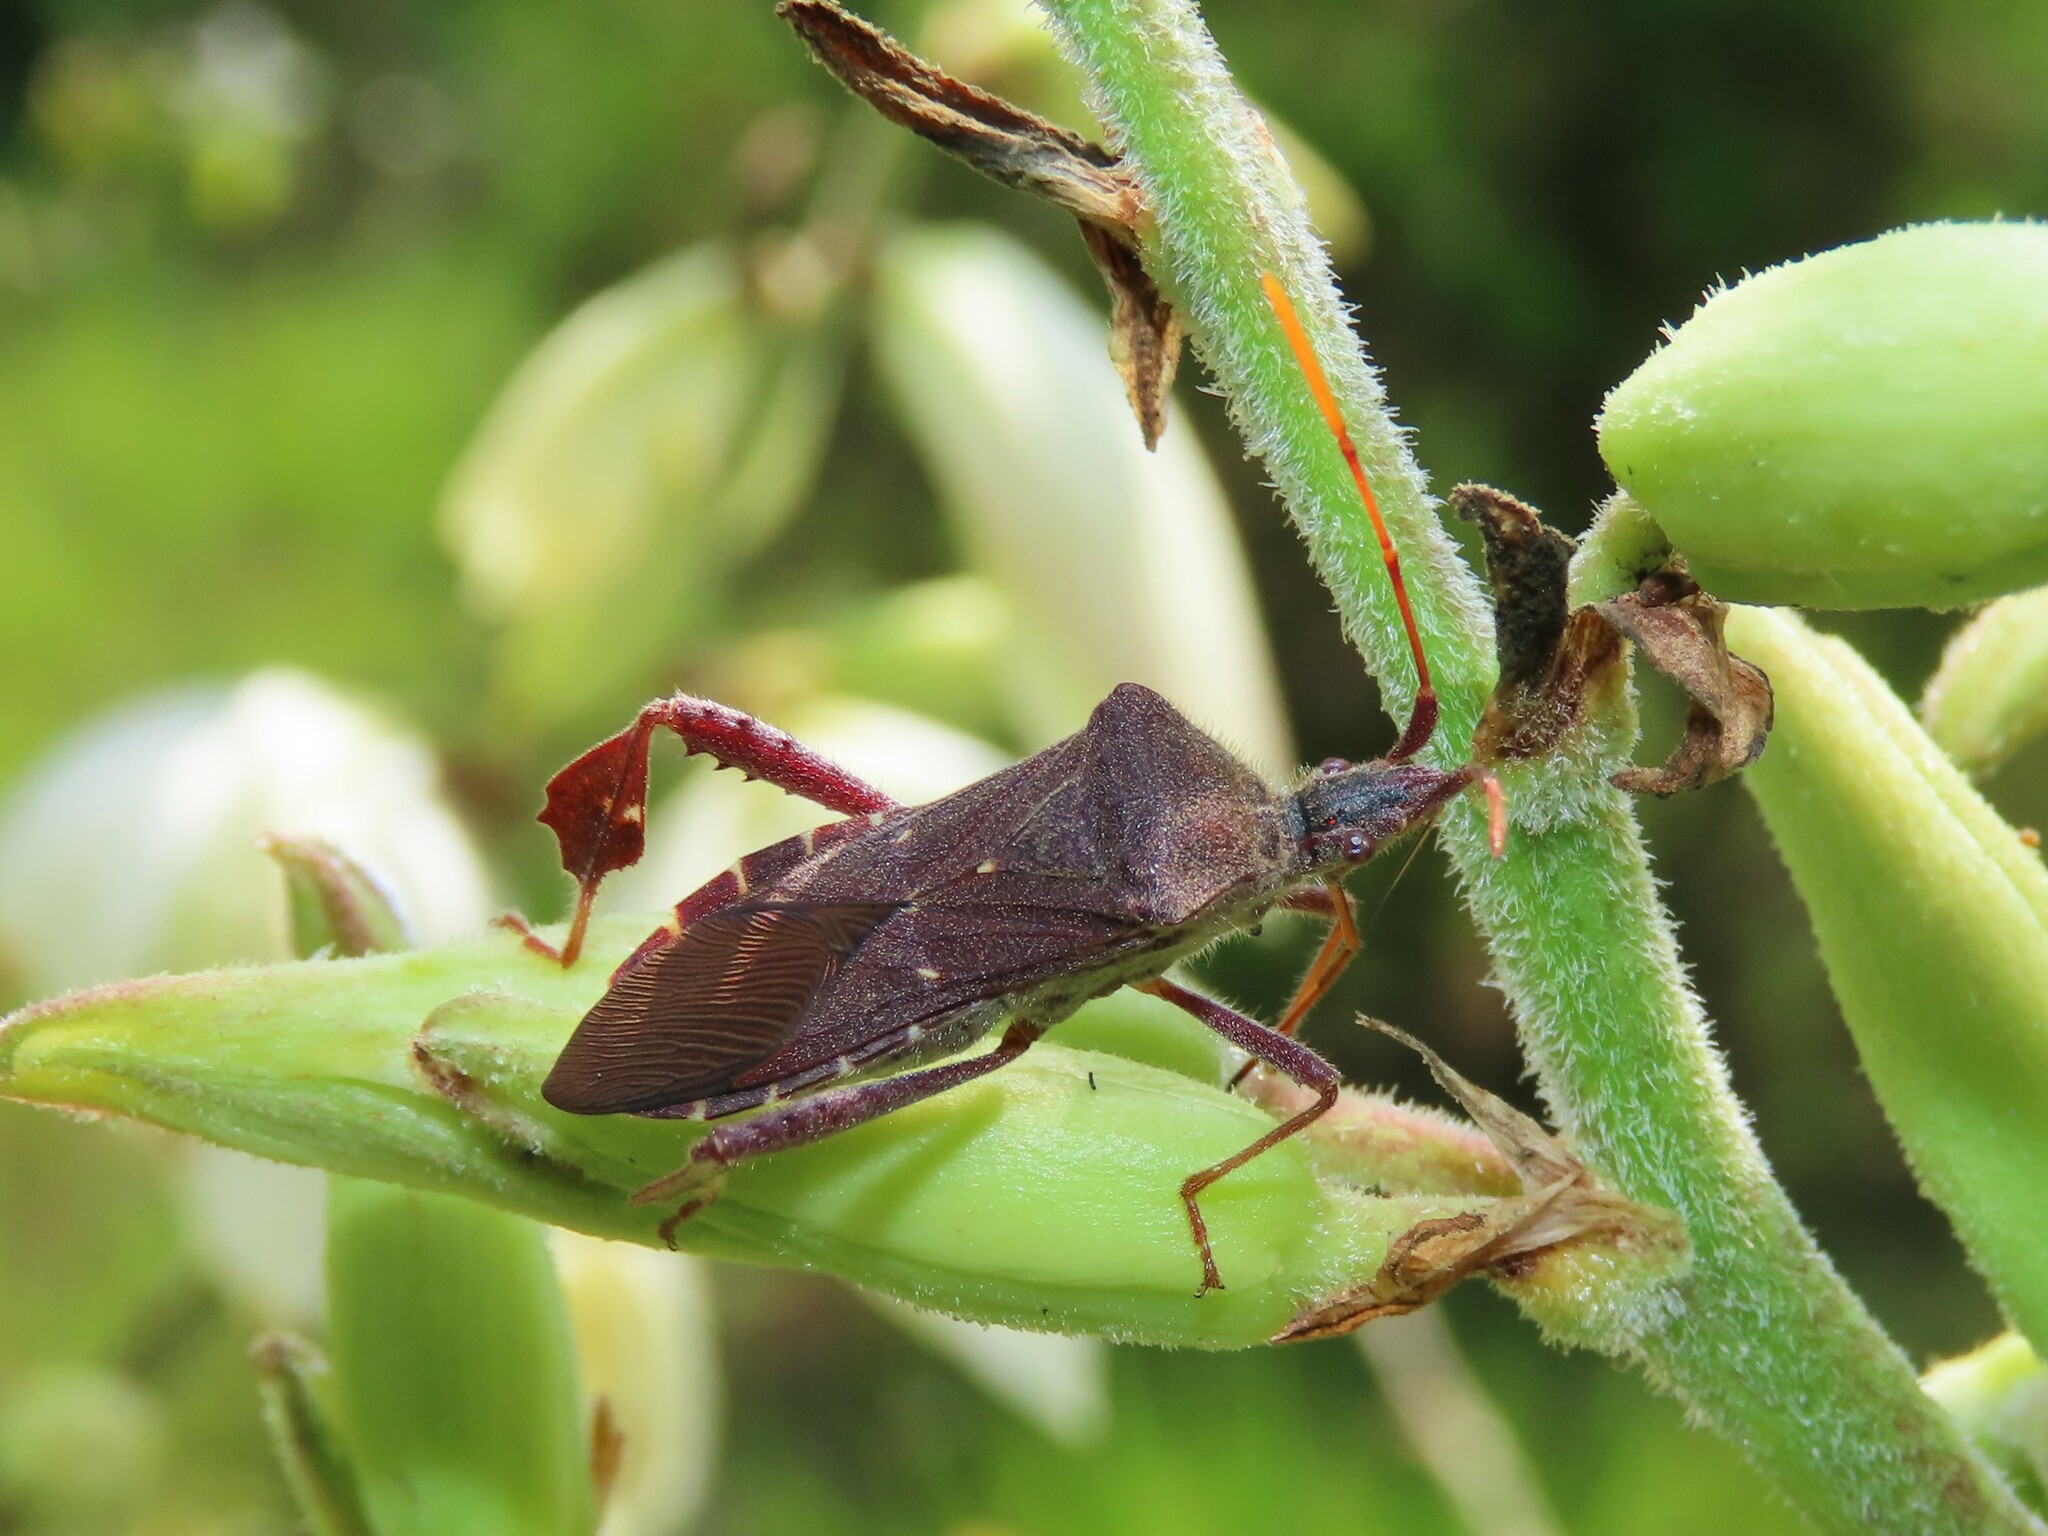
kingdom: Animalia
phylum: Arthropoda
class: Insecta
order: Hemiptera
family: Coreidae
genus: Leptoglossus
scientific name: Leptoglossus oppositus
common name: Northern leaf-footed bug
